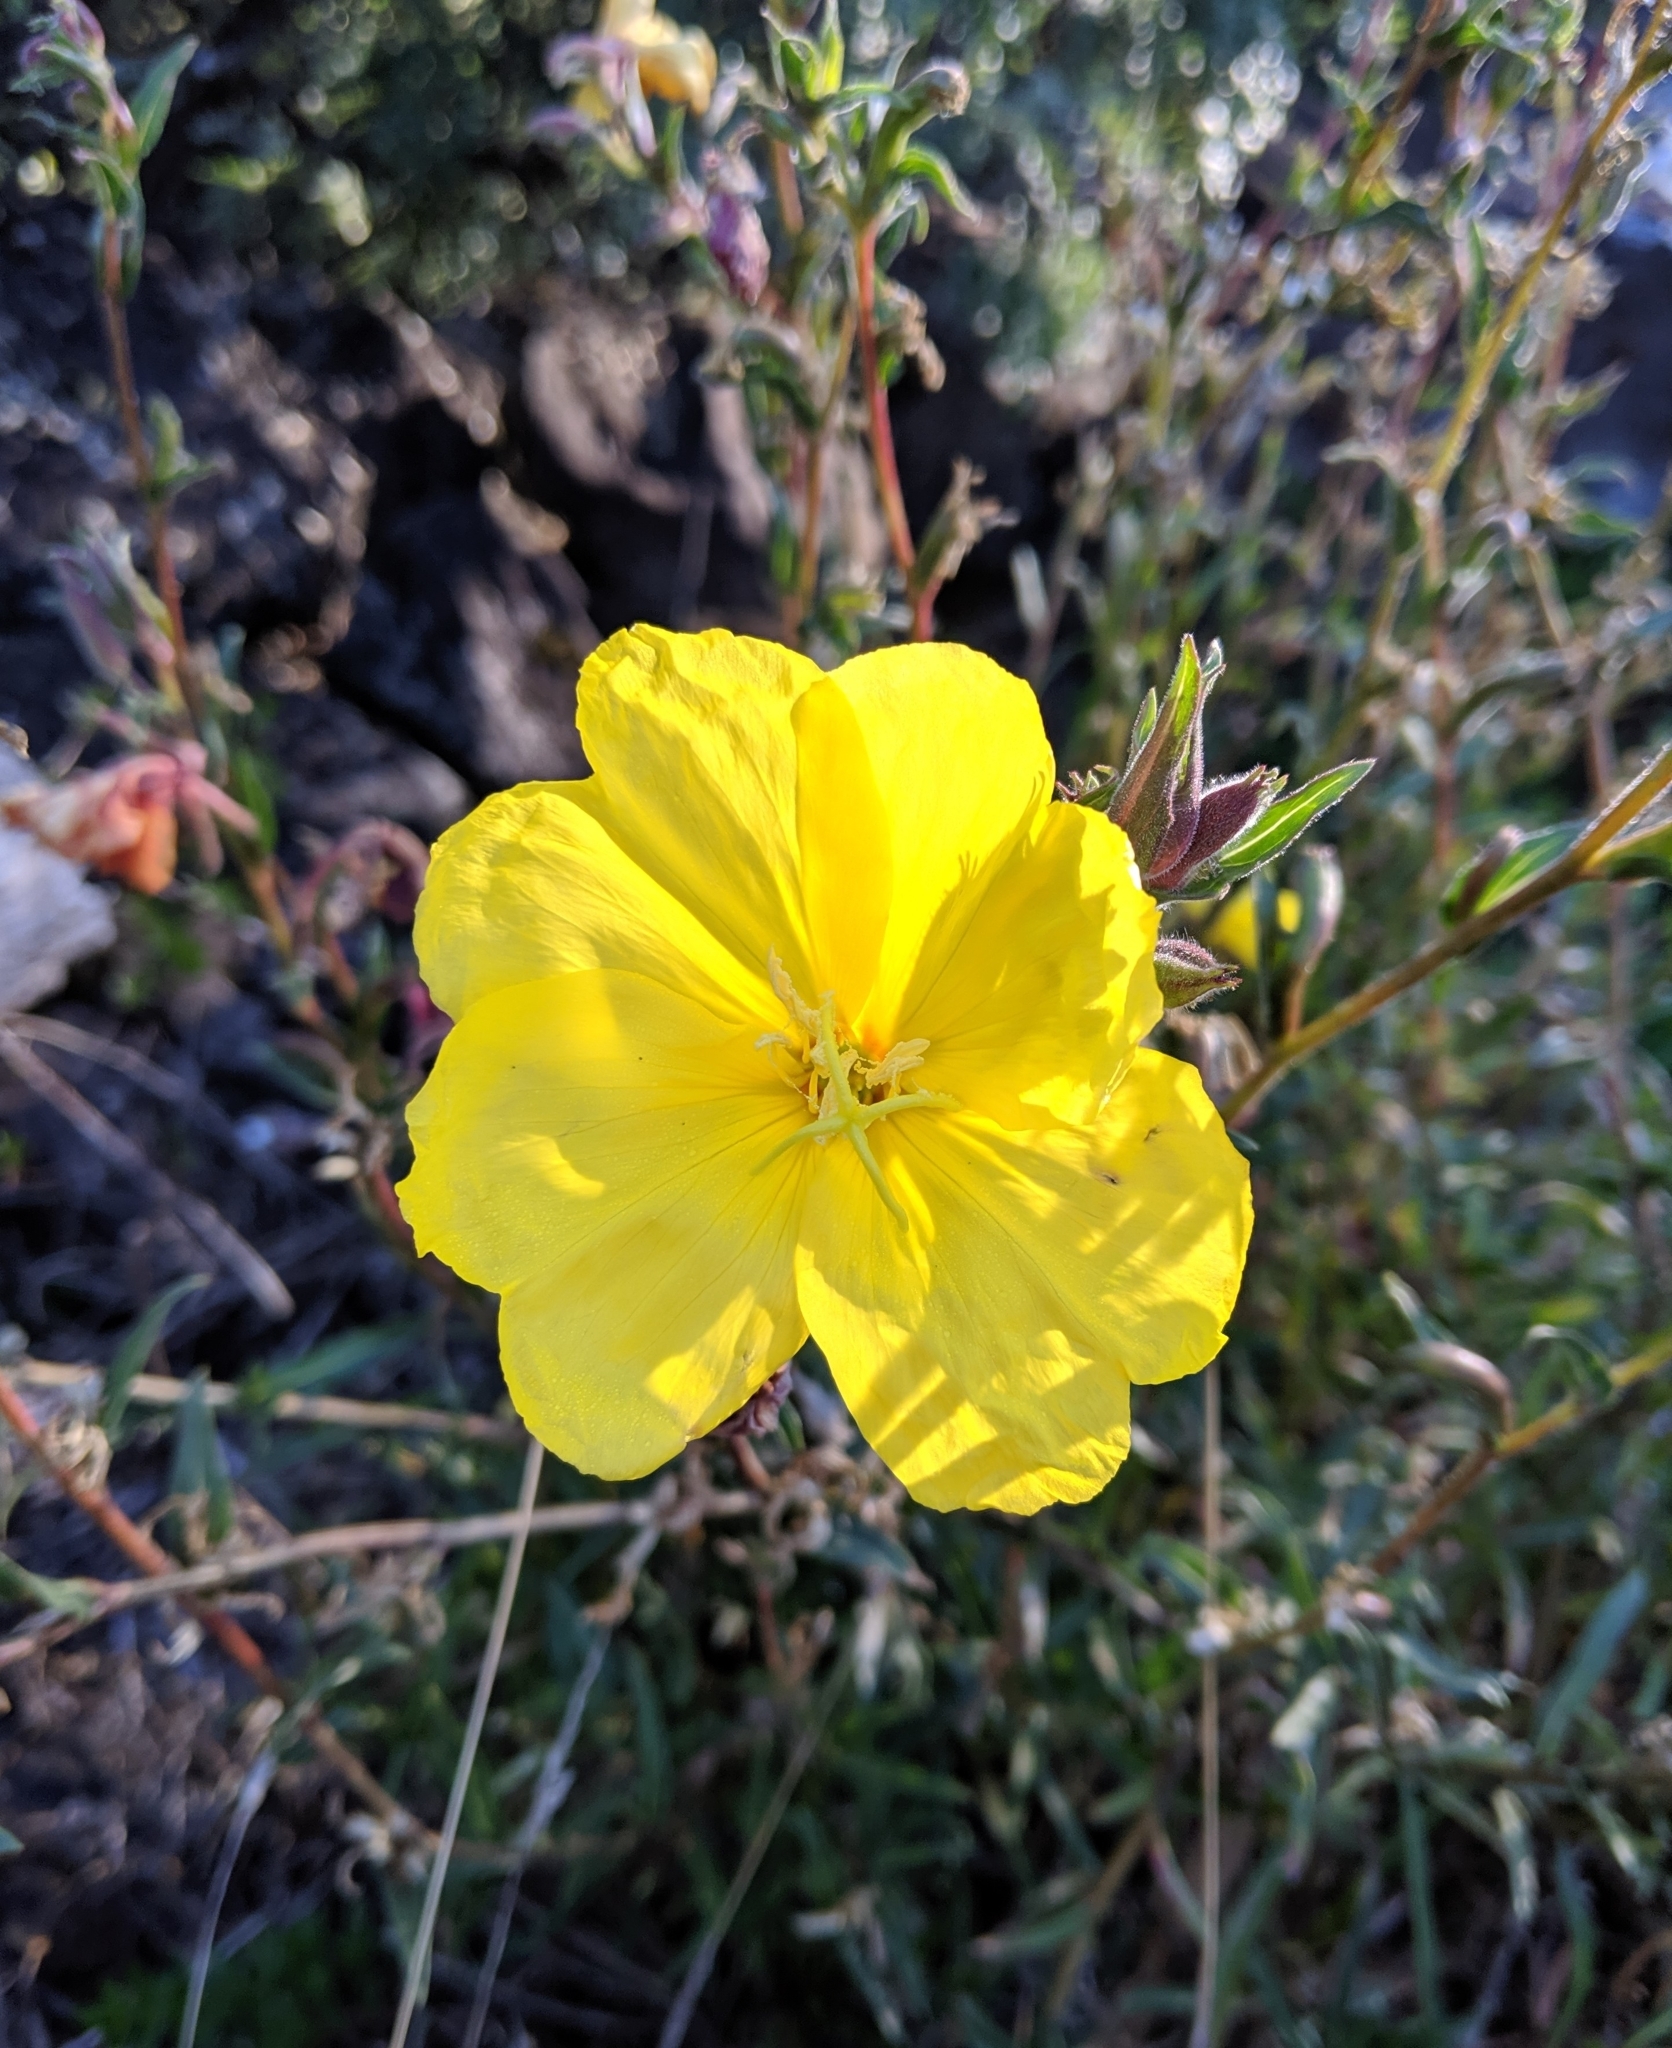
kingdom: Plantae
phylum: Tracheophyta
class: Magnoliopsida
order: Myrtales
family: Onagraceae
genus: Oenothera
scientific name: Oenothera stricta
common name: Fragrant evening-primrose
